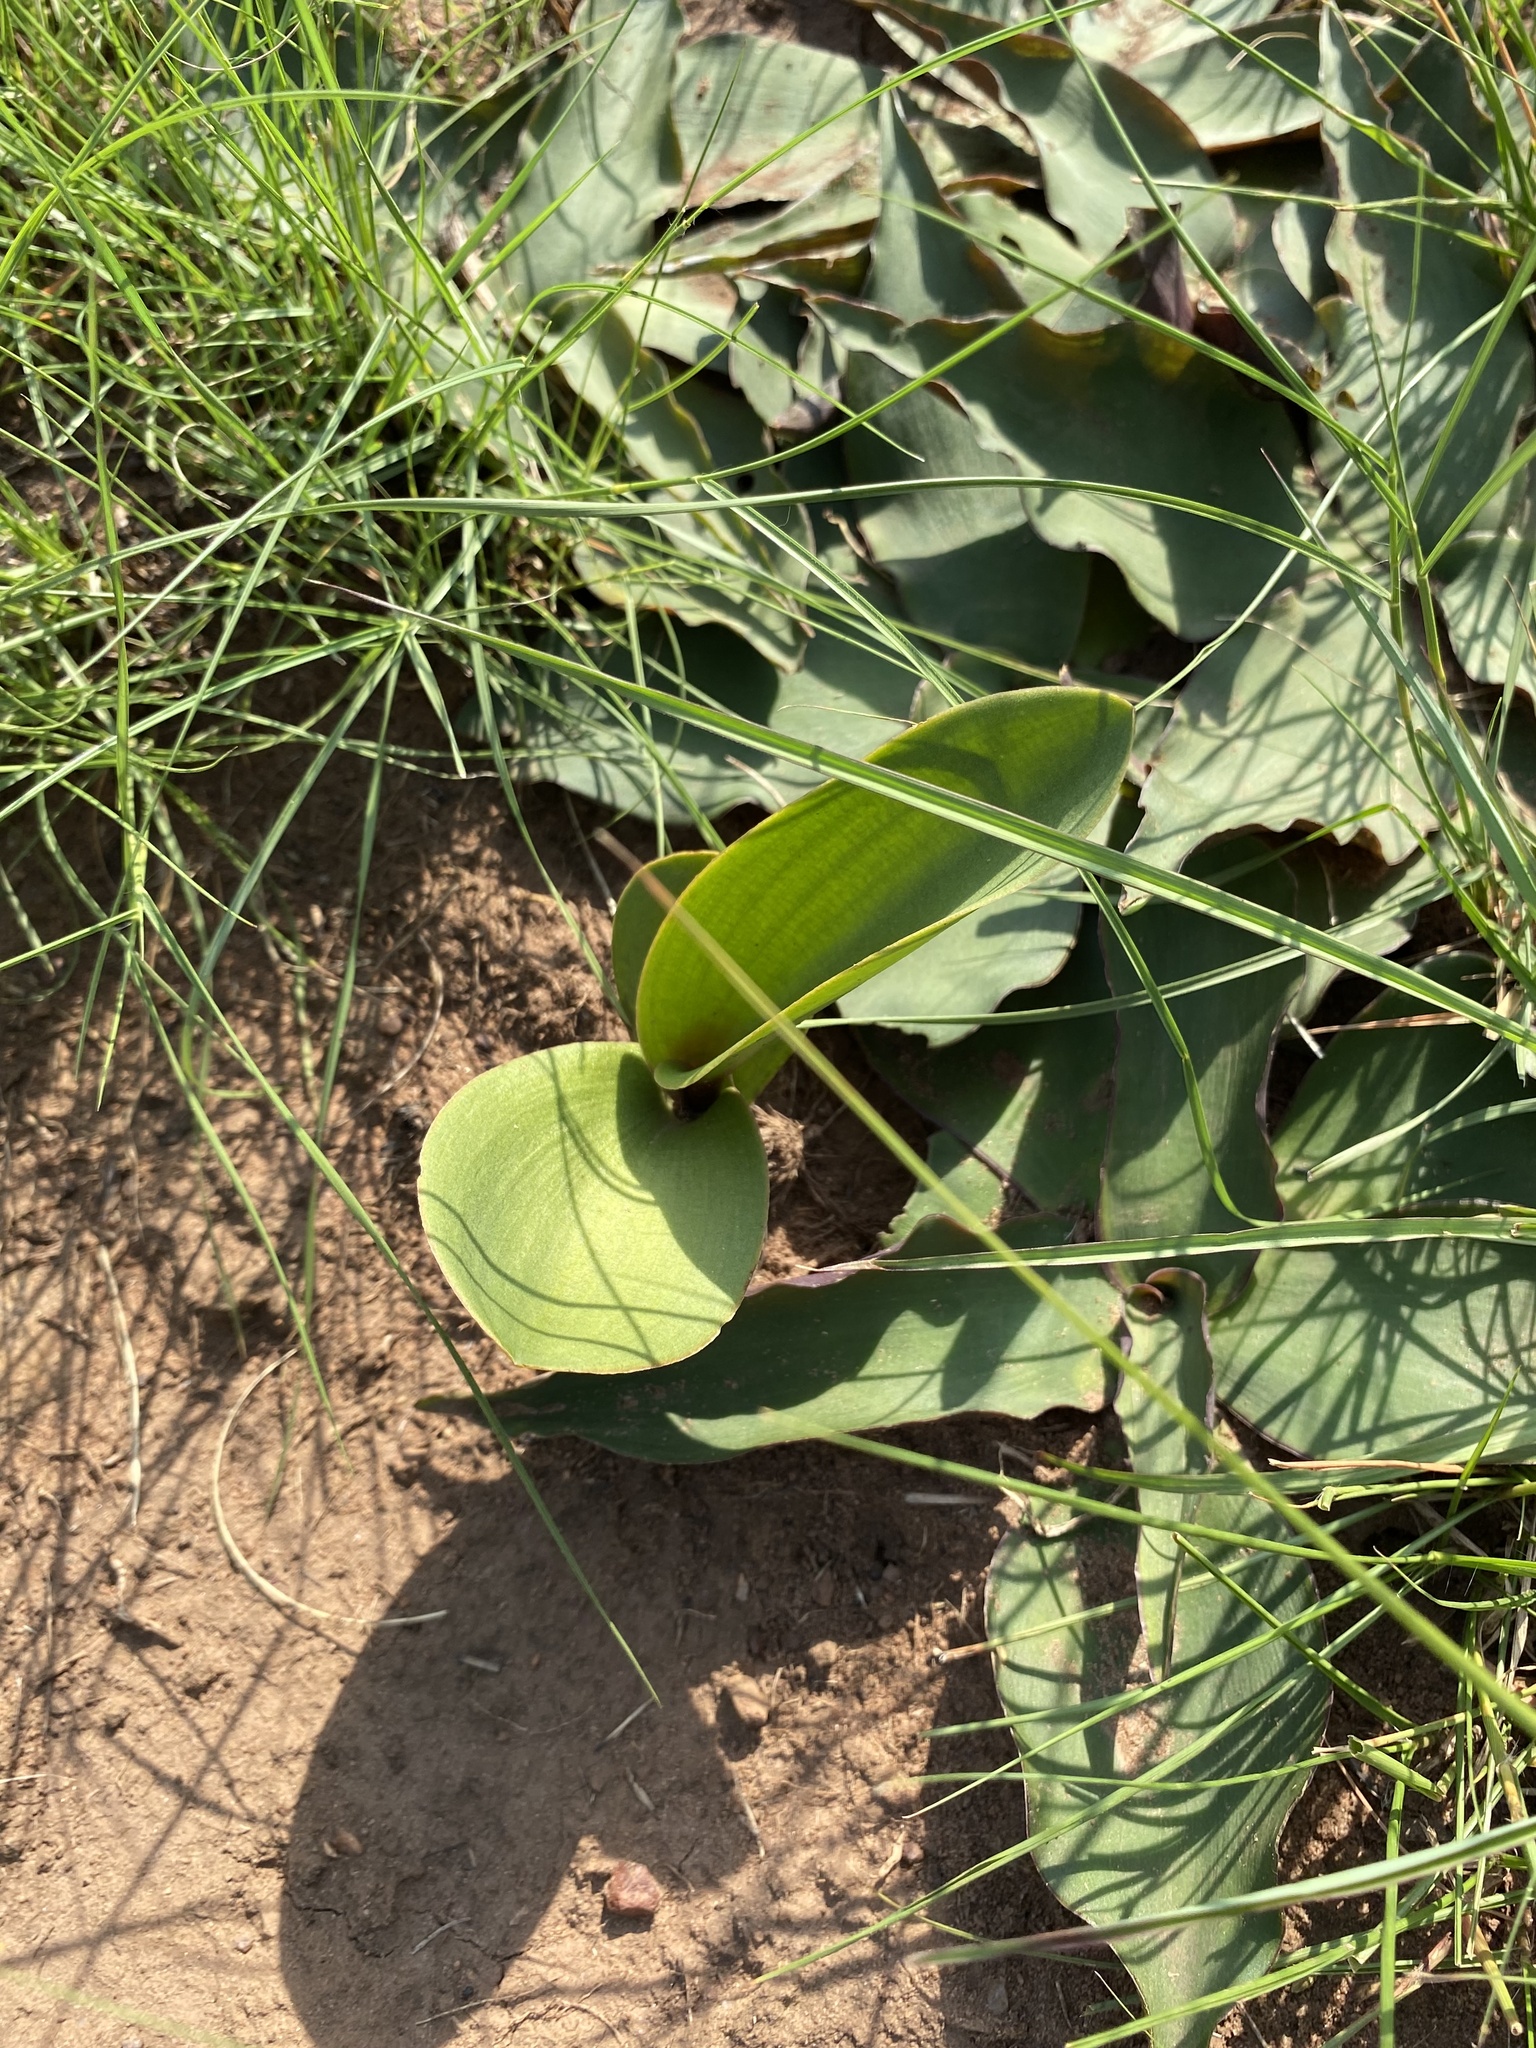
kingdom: Plantae
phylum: Tracheophyta
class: Liliopsida
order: Asparagales
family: Asparagaceae
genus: Eriospermum
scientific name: Eriospermum mackenii
